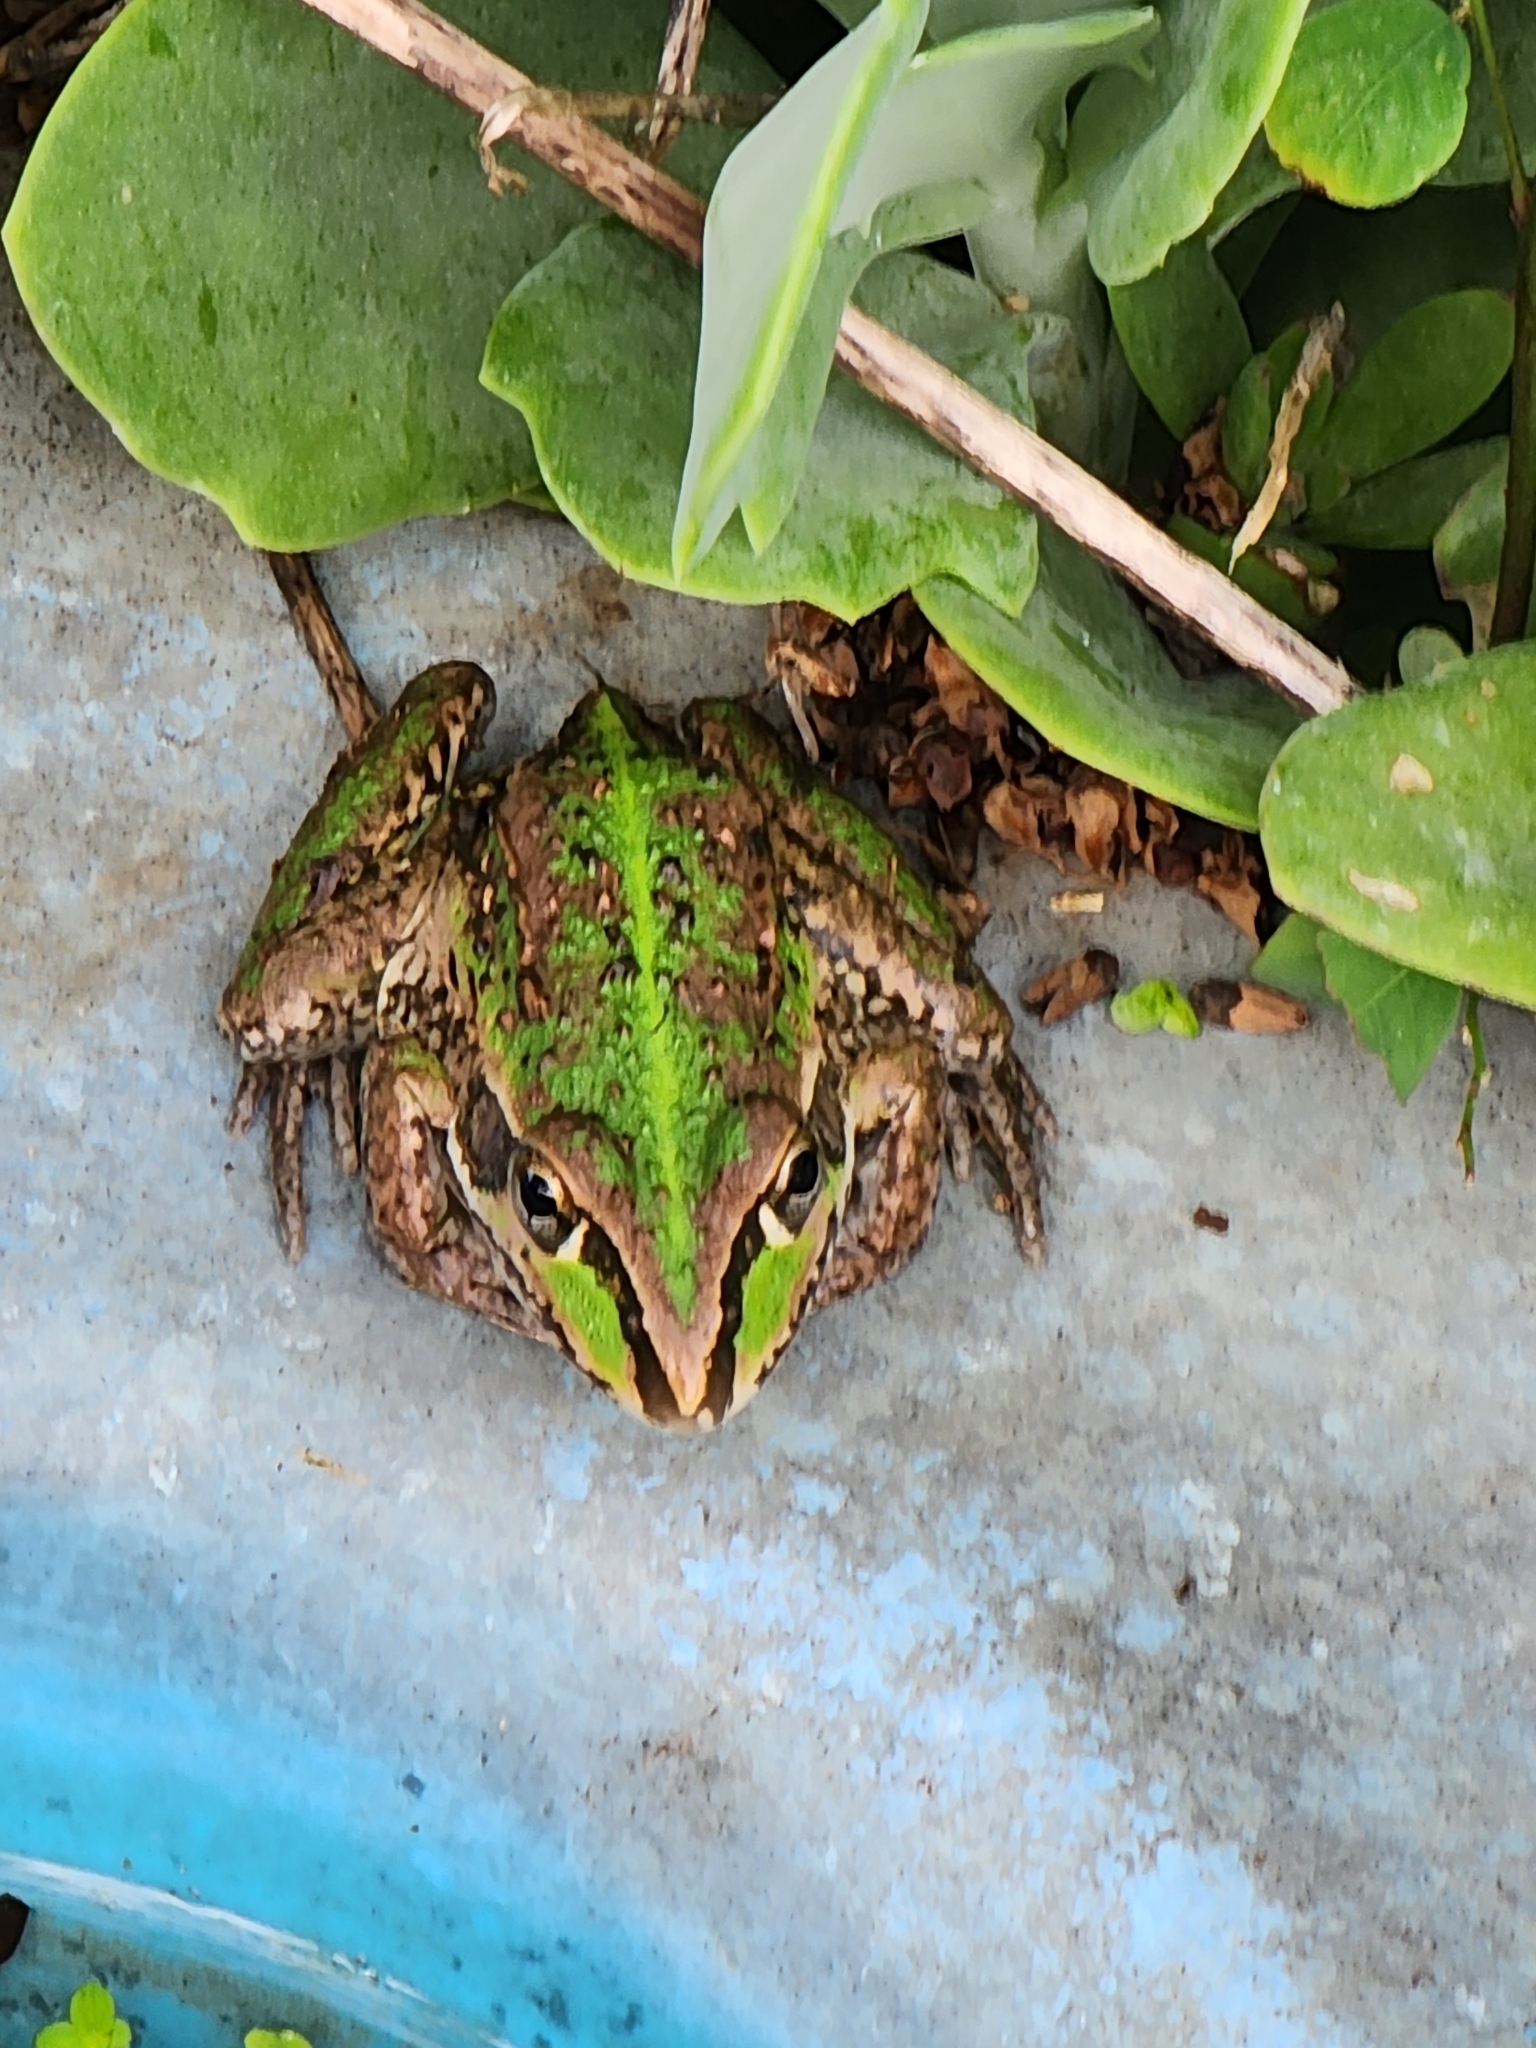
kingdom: Animalia
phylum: Chordata
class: Amphibia
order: Anura
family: Pelodryadidae
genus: Ranoidea
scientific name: Ranoidea alboguttata
